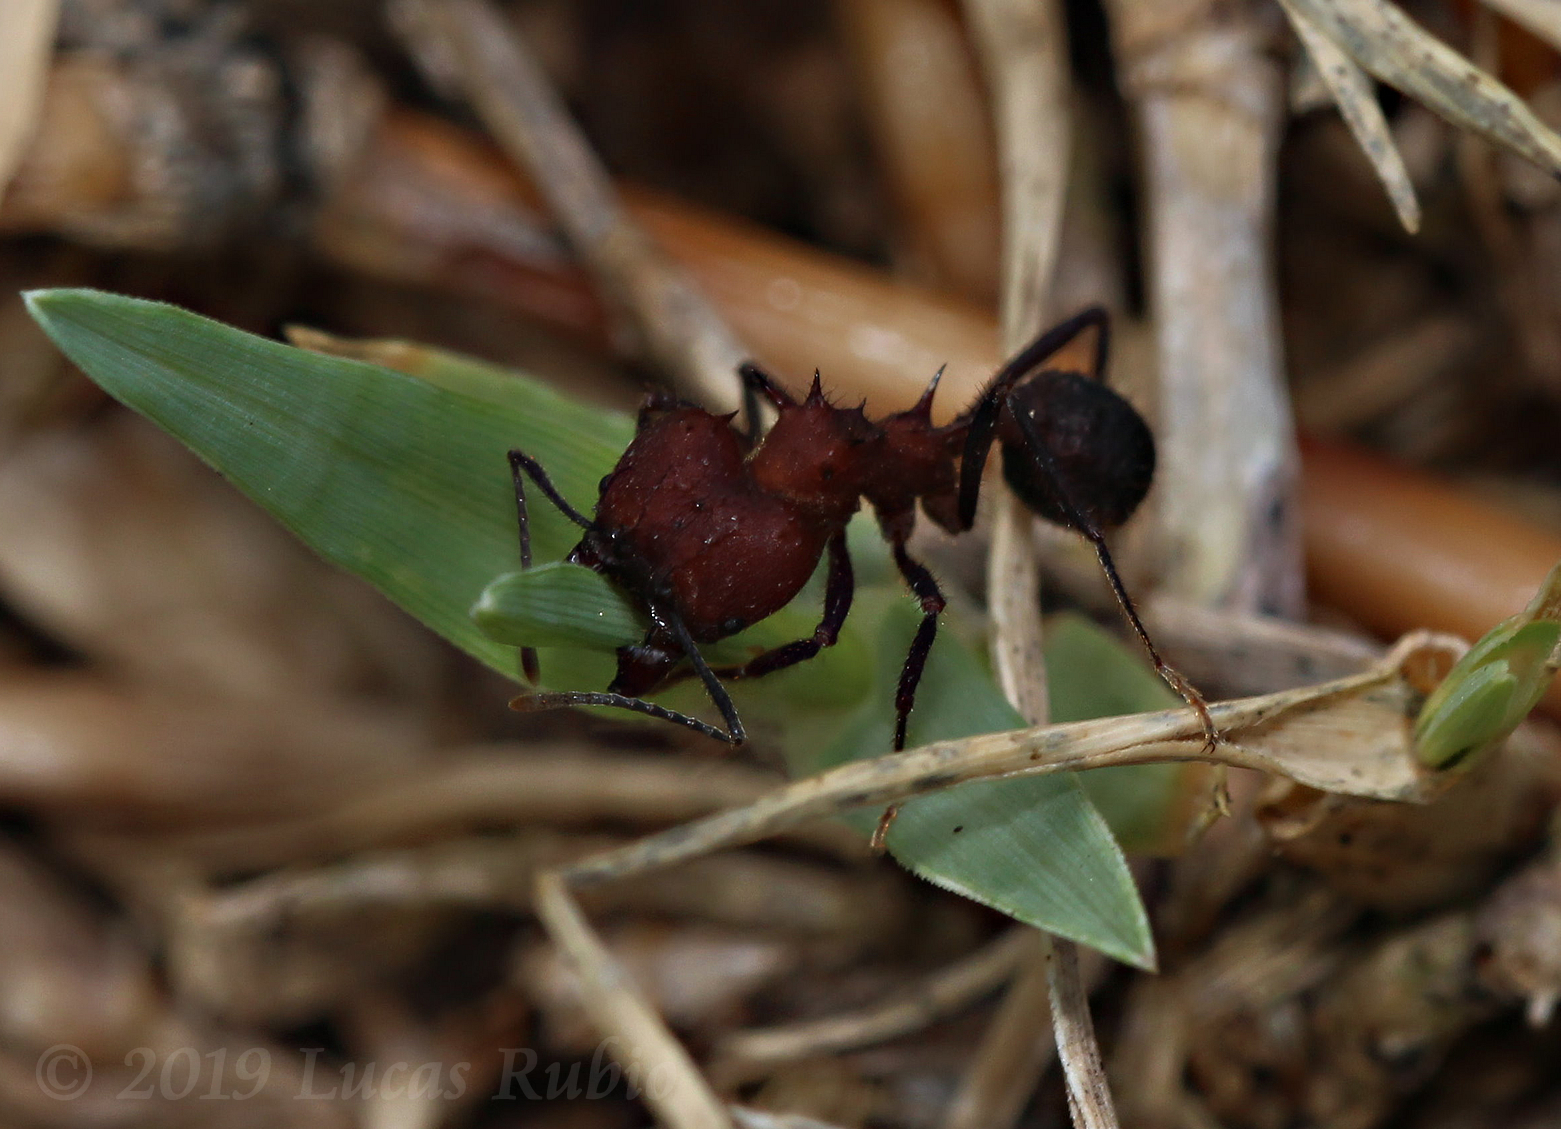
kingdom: Animalia
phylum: Arthropoda
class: Insecta
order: Hymenoptera
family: Formicidae
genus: Acromyrmex
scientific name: Acromyrmex heyeri
